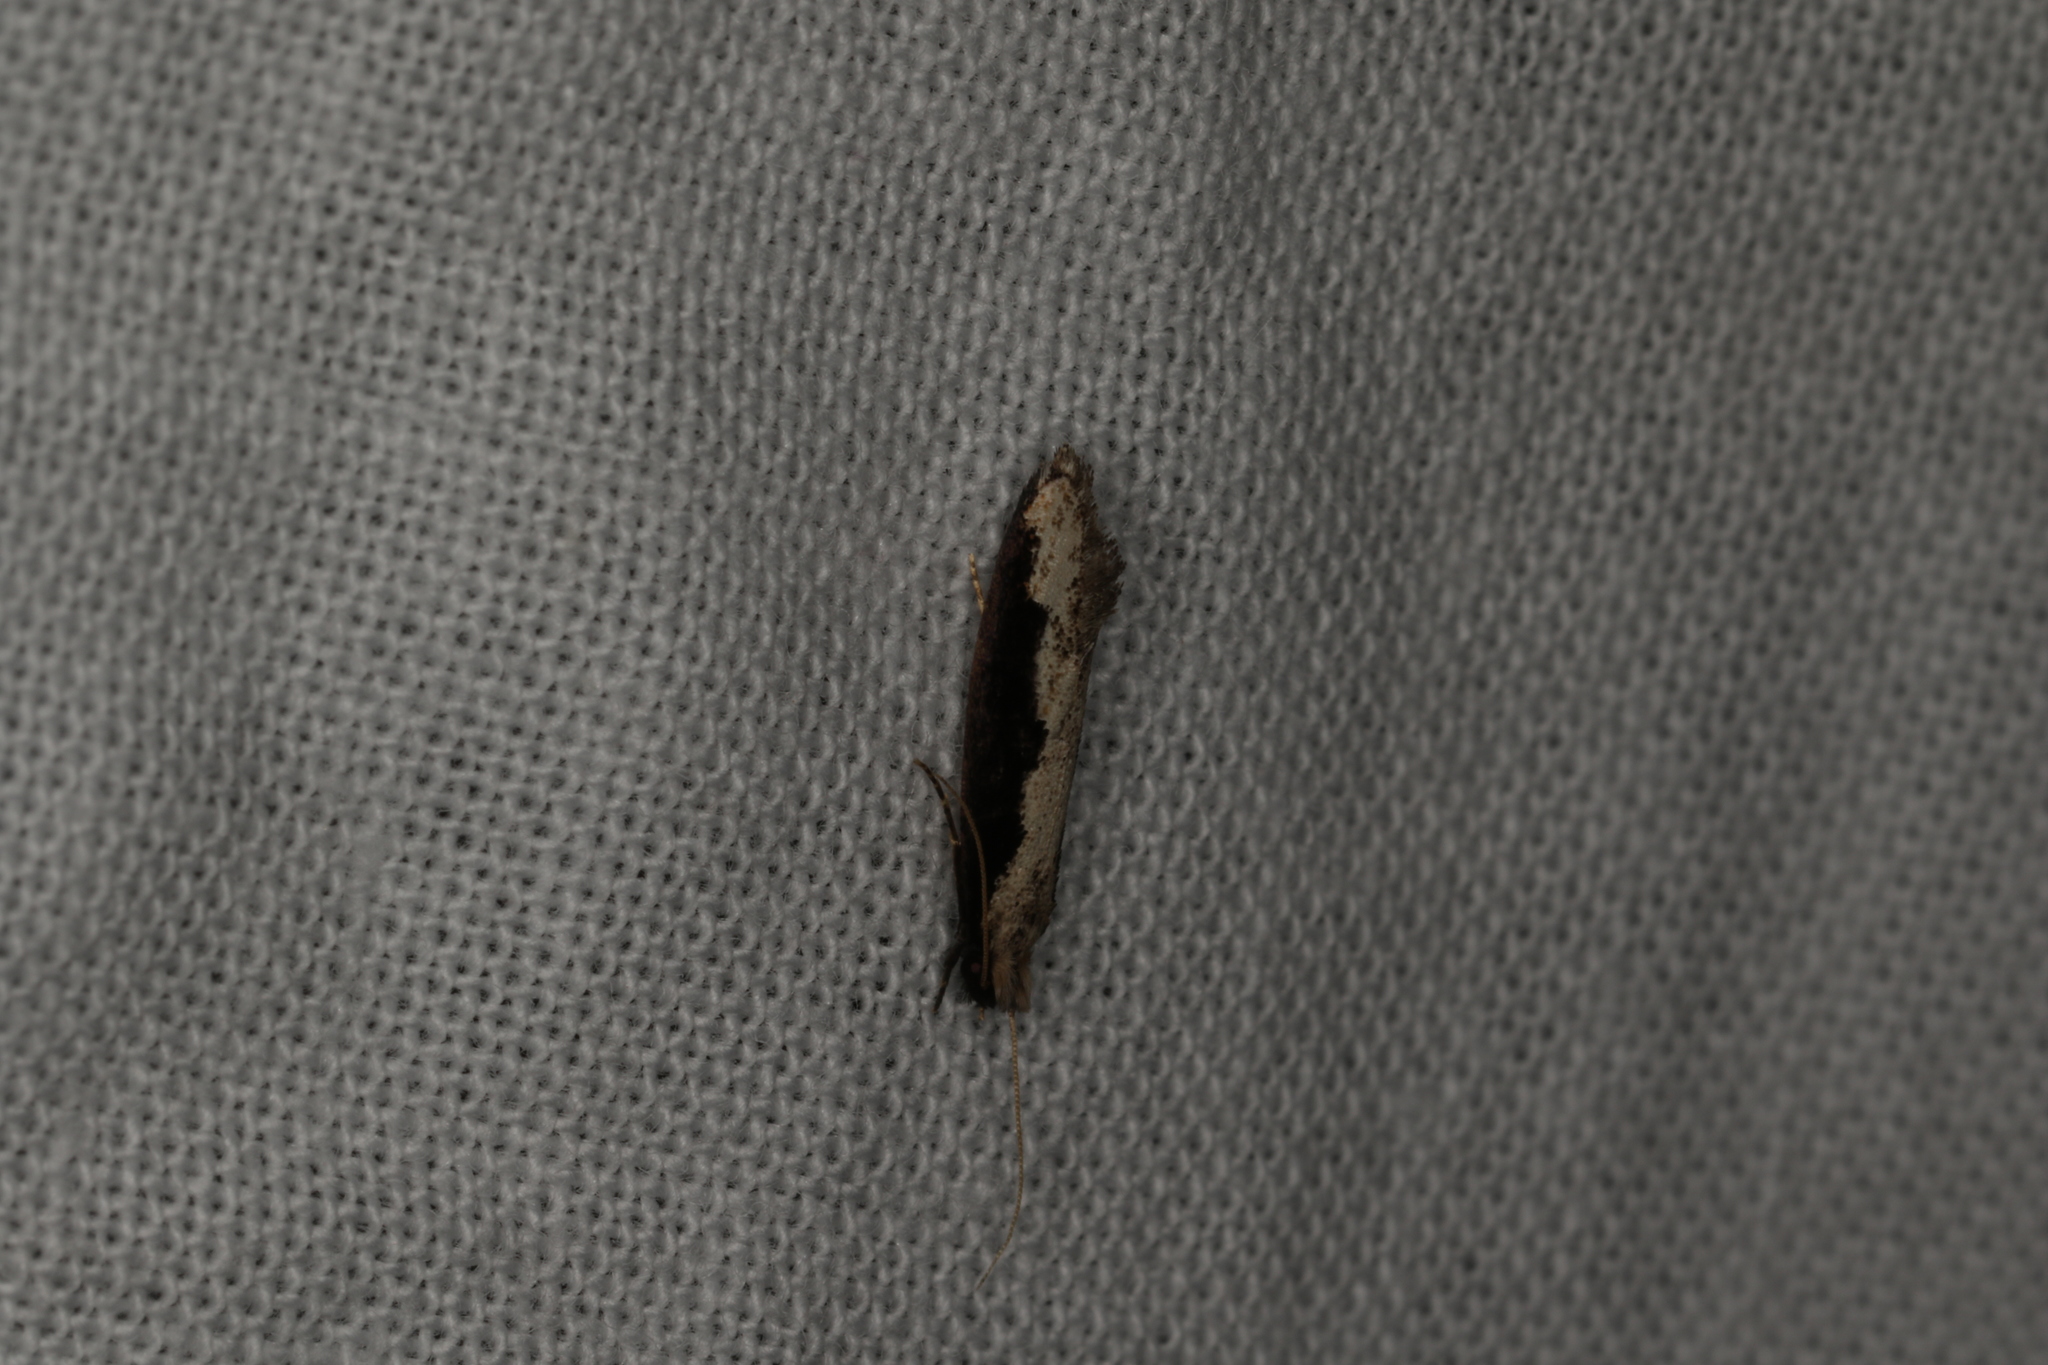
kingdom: Animalia
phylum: Arthropoda
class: Insecta
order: Lepidoptera
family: Tineidae
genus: Erechthias
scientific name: Erechthias diaphora
